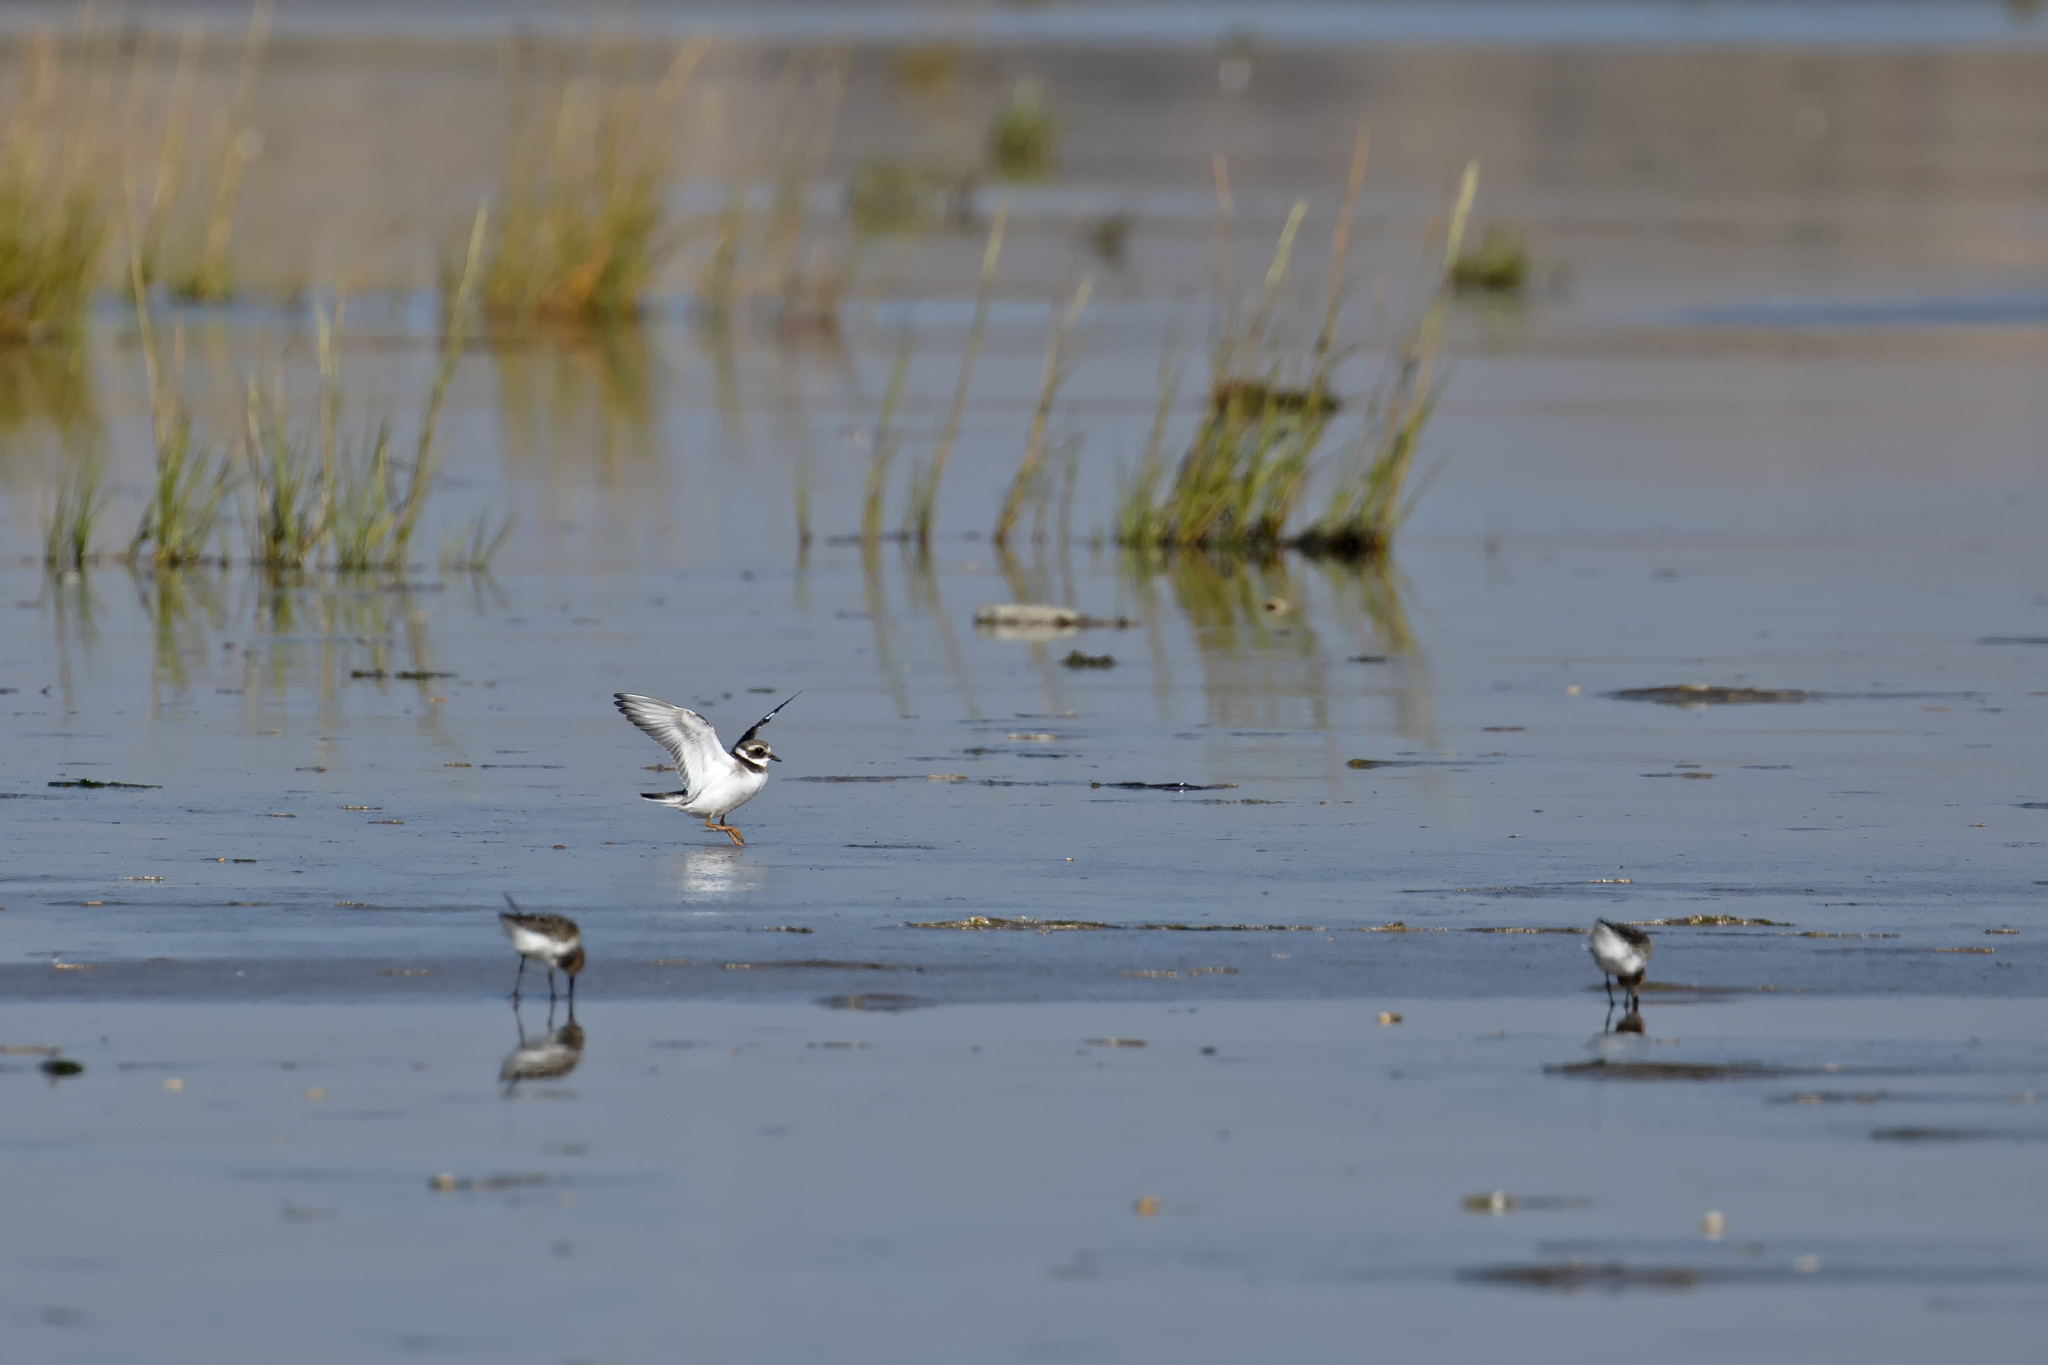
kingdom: Animalia
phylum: Chordata
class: Aves
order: Charadriiformes
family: Charadriidae
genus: Charadrius
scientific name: Charadrius hiaticula
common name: Common ringed plover
